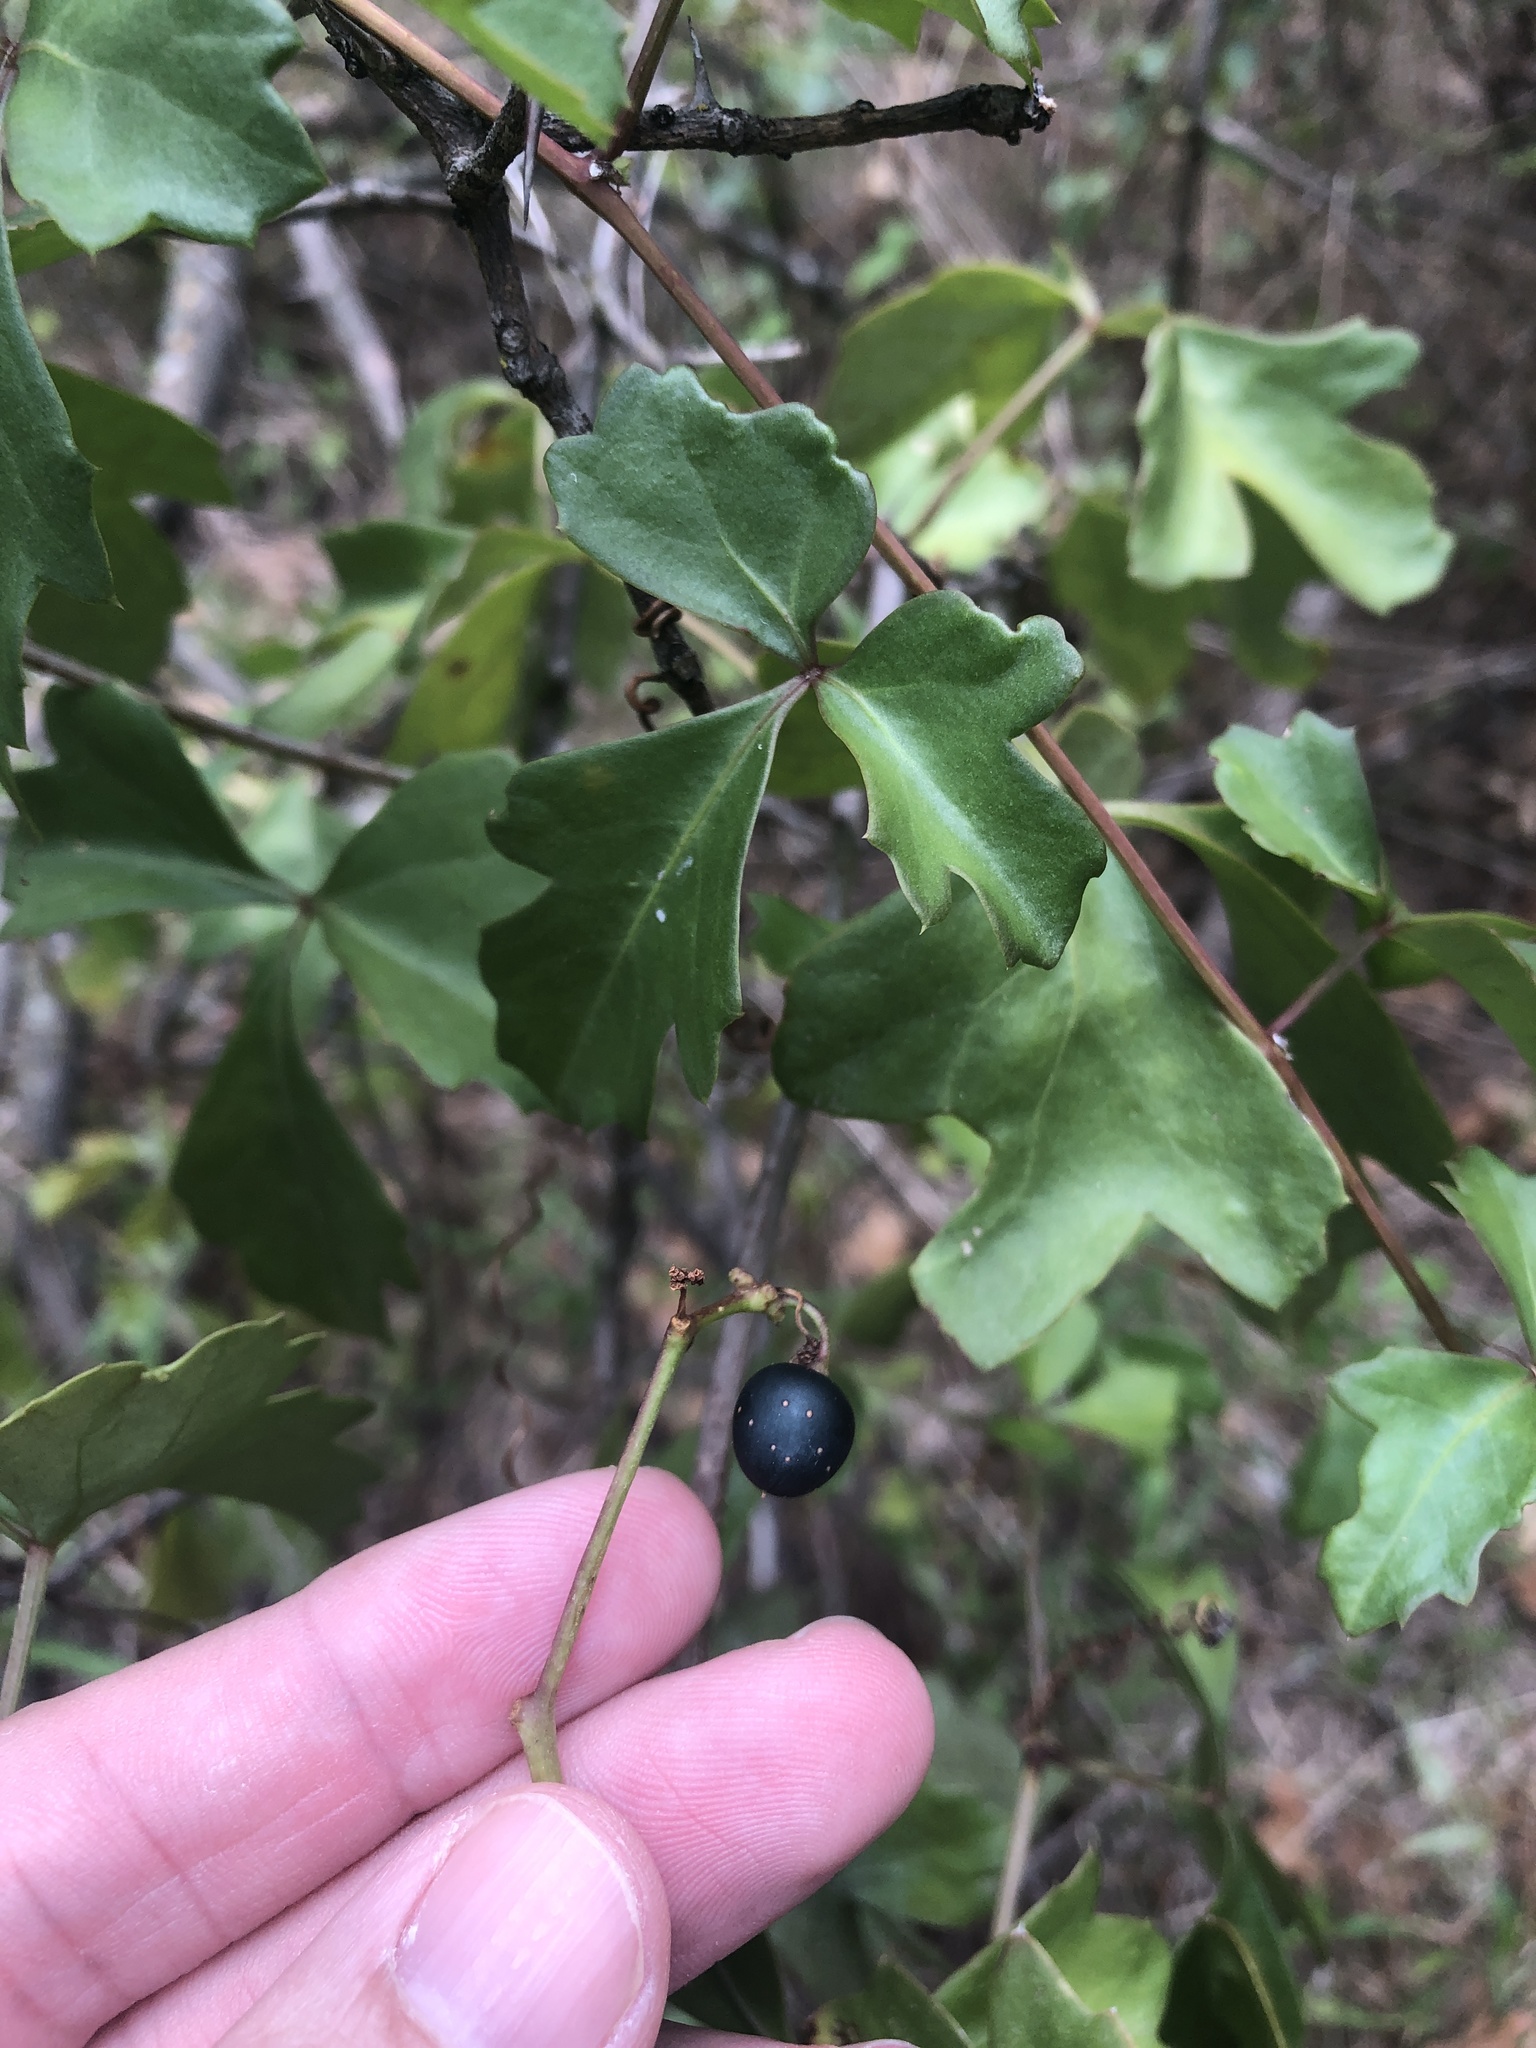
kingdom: Plantae
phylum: Tracheophyta
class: Magnoliopsida
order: Vitales
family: Vitaceae
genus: Cissus
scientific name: Cissus trifoliata
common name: Vine-sorrel
